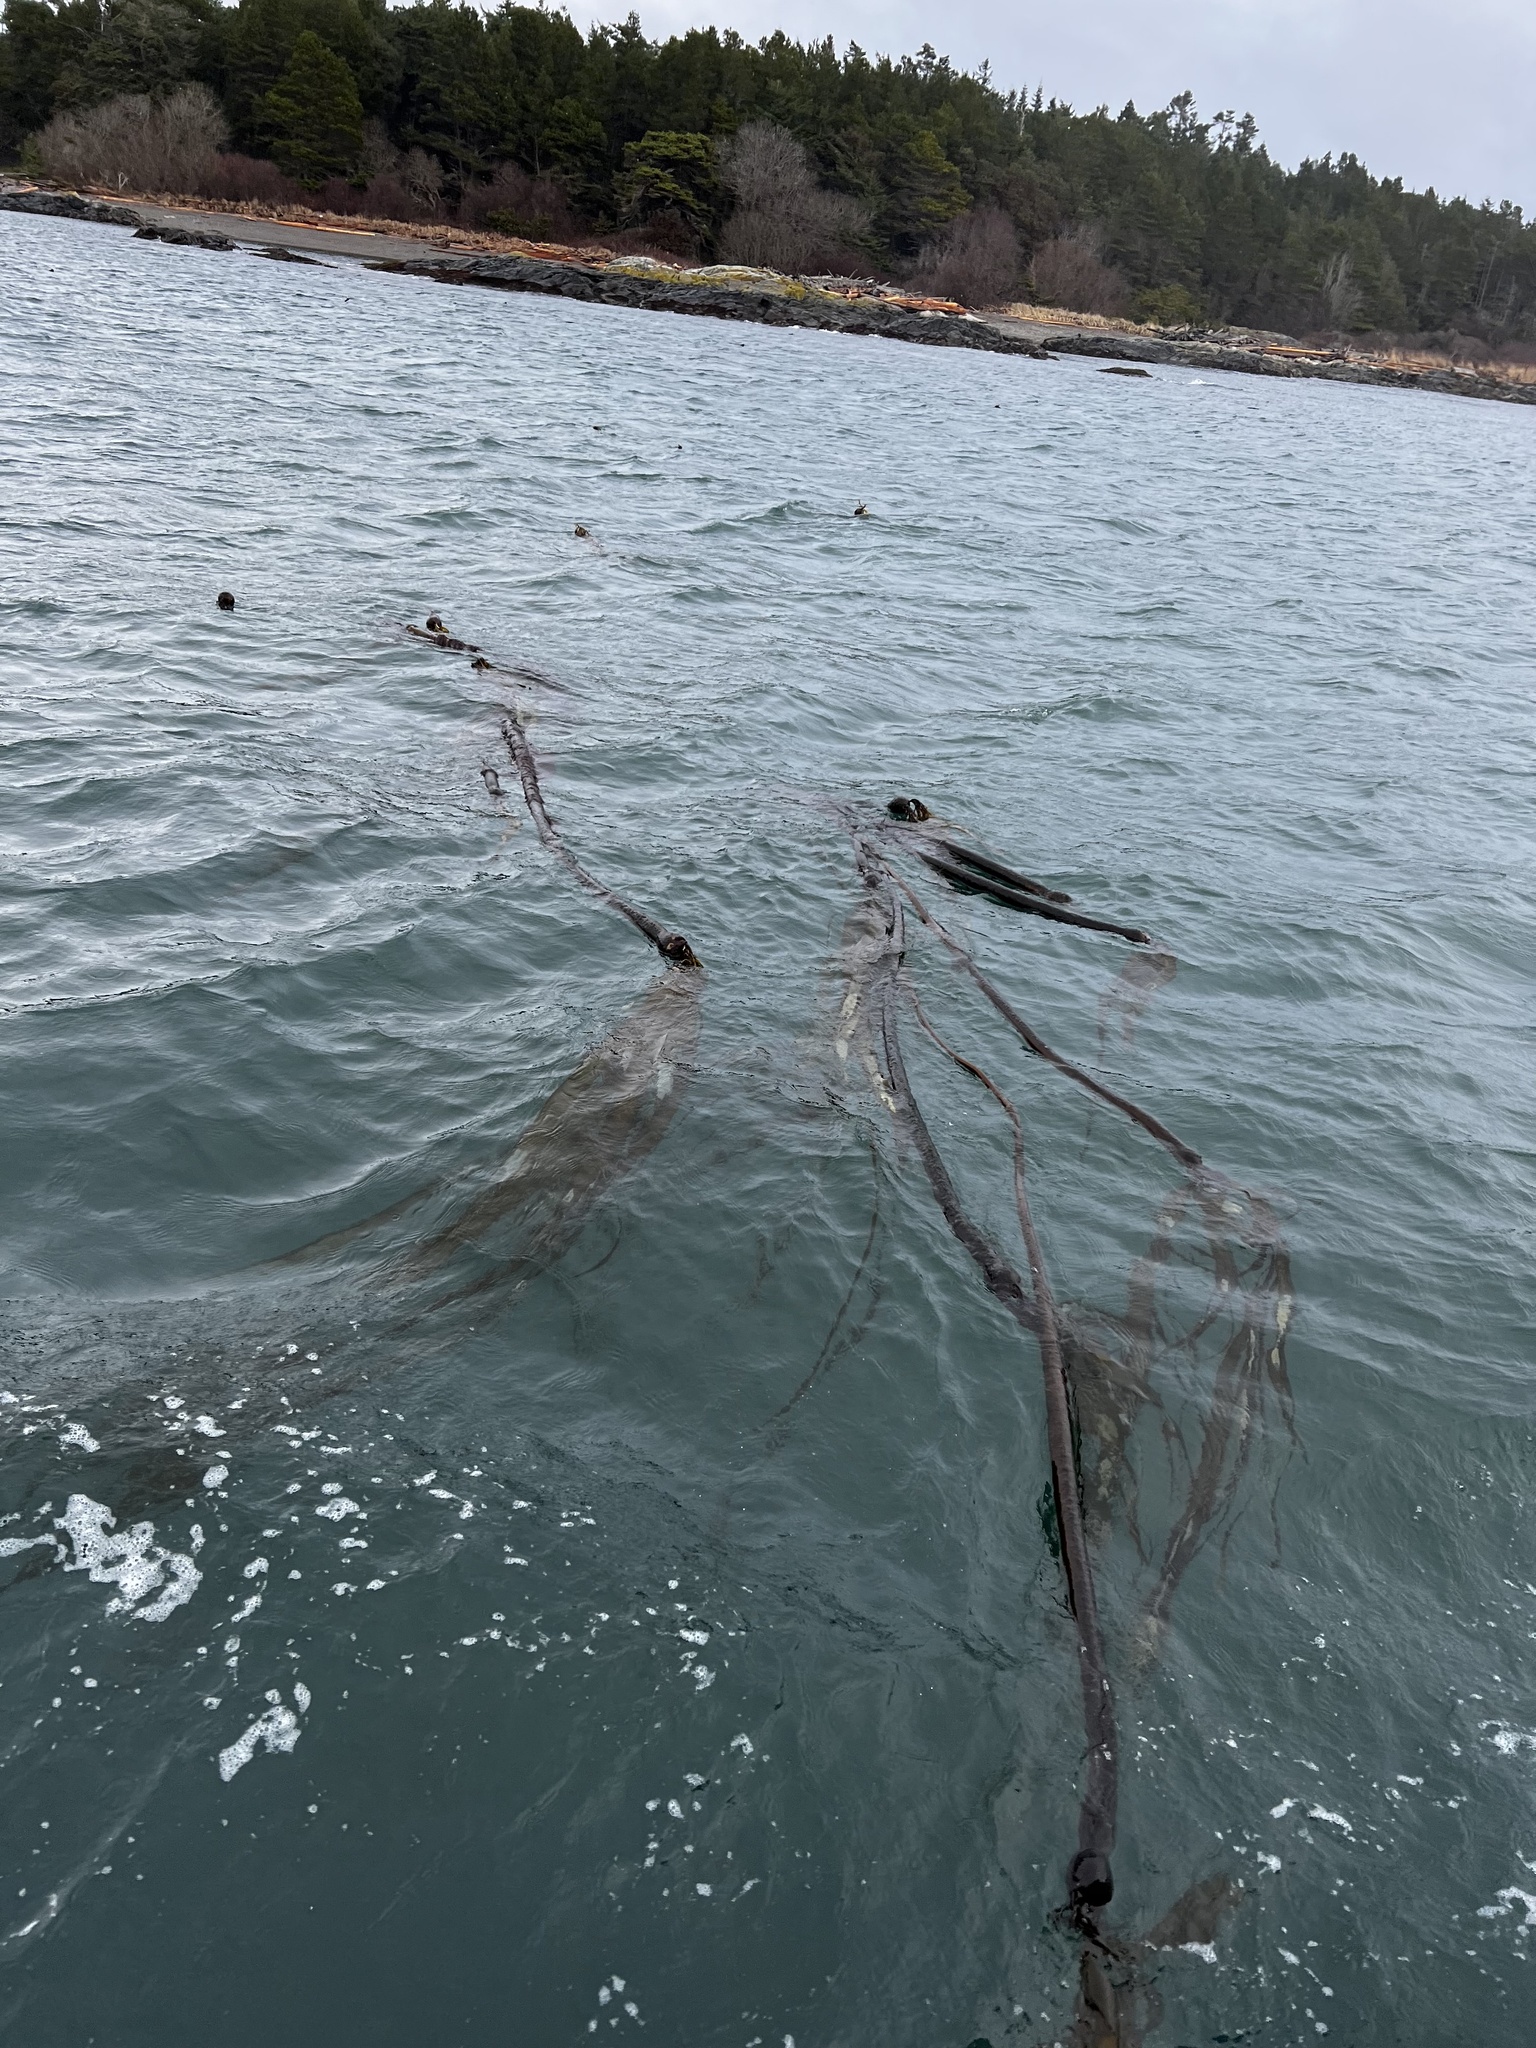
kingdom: Chromista
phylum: Ochrophyta
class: Phaeophyceae
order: Laminariales
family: Laminariaceae
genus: Nereocystis
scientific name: Nereocystis luetkeana
